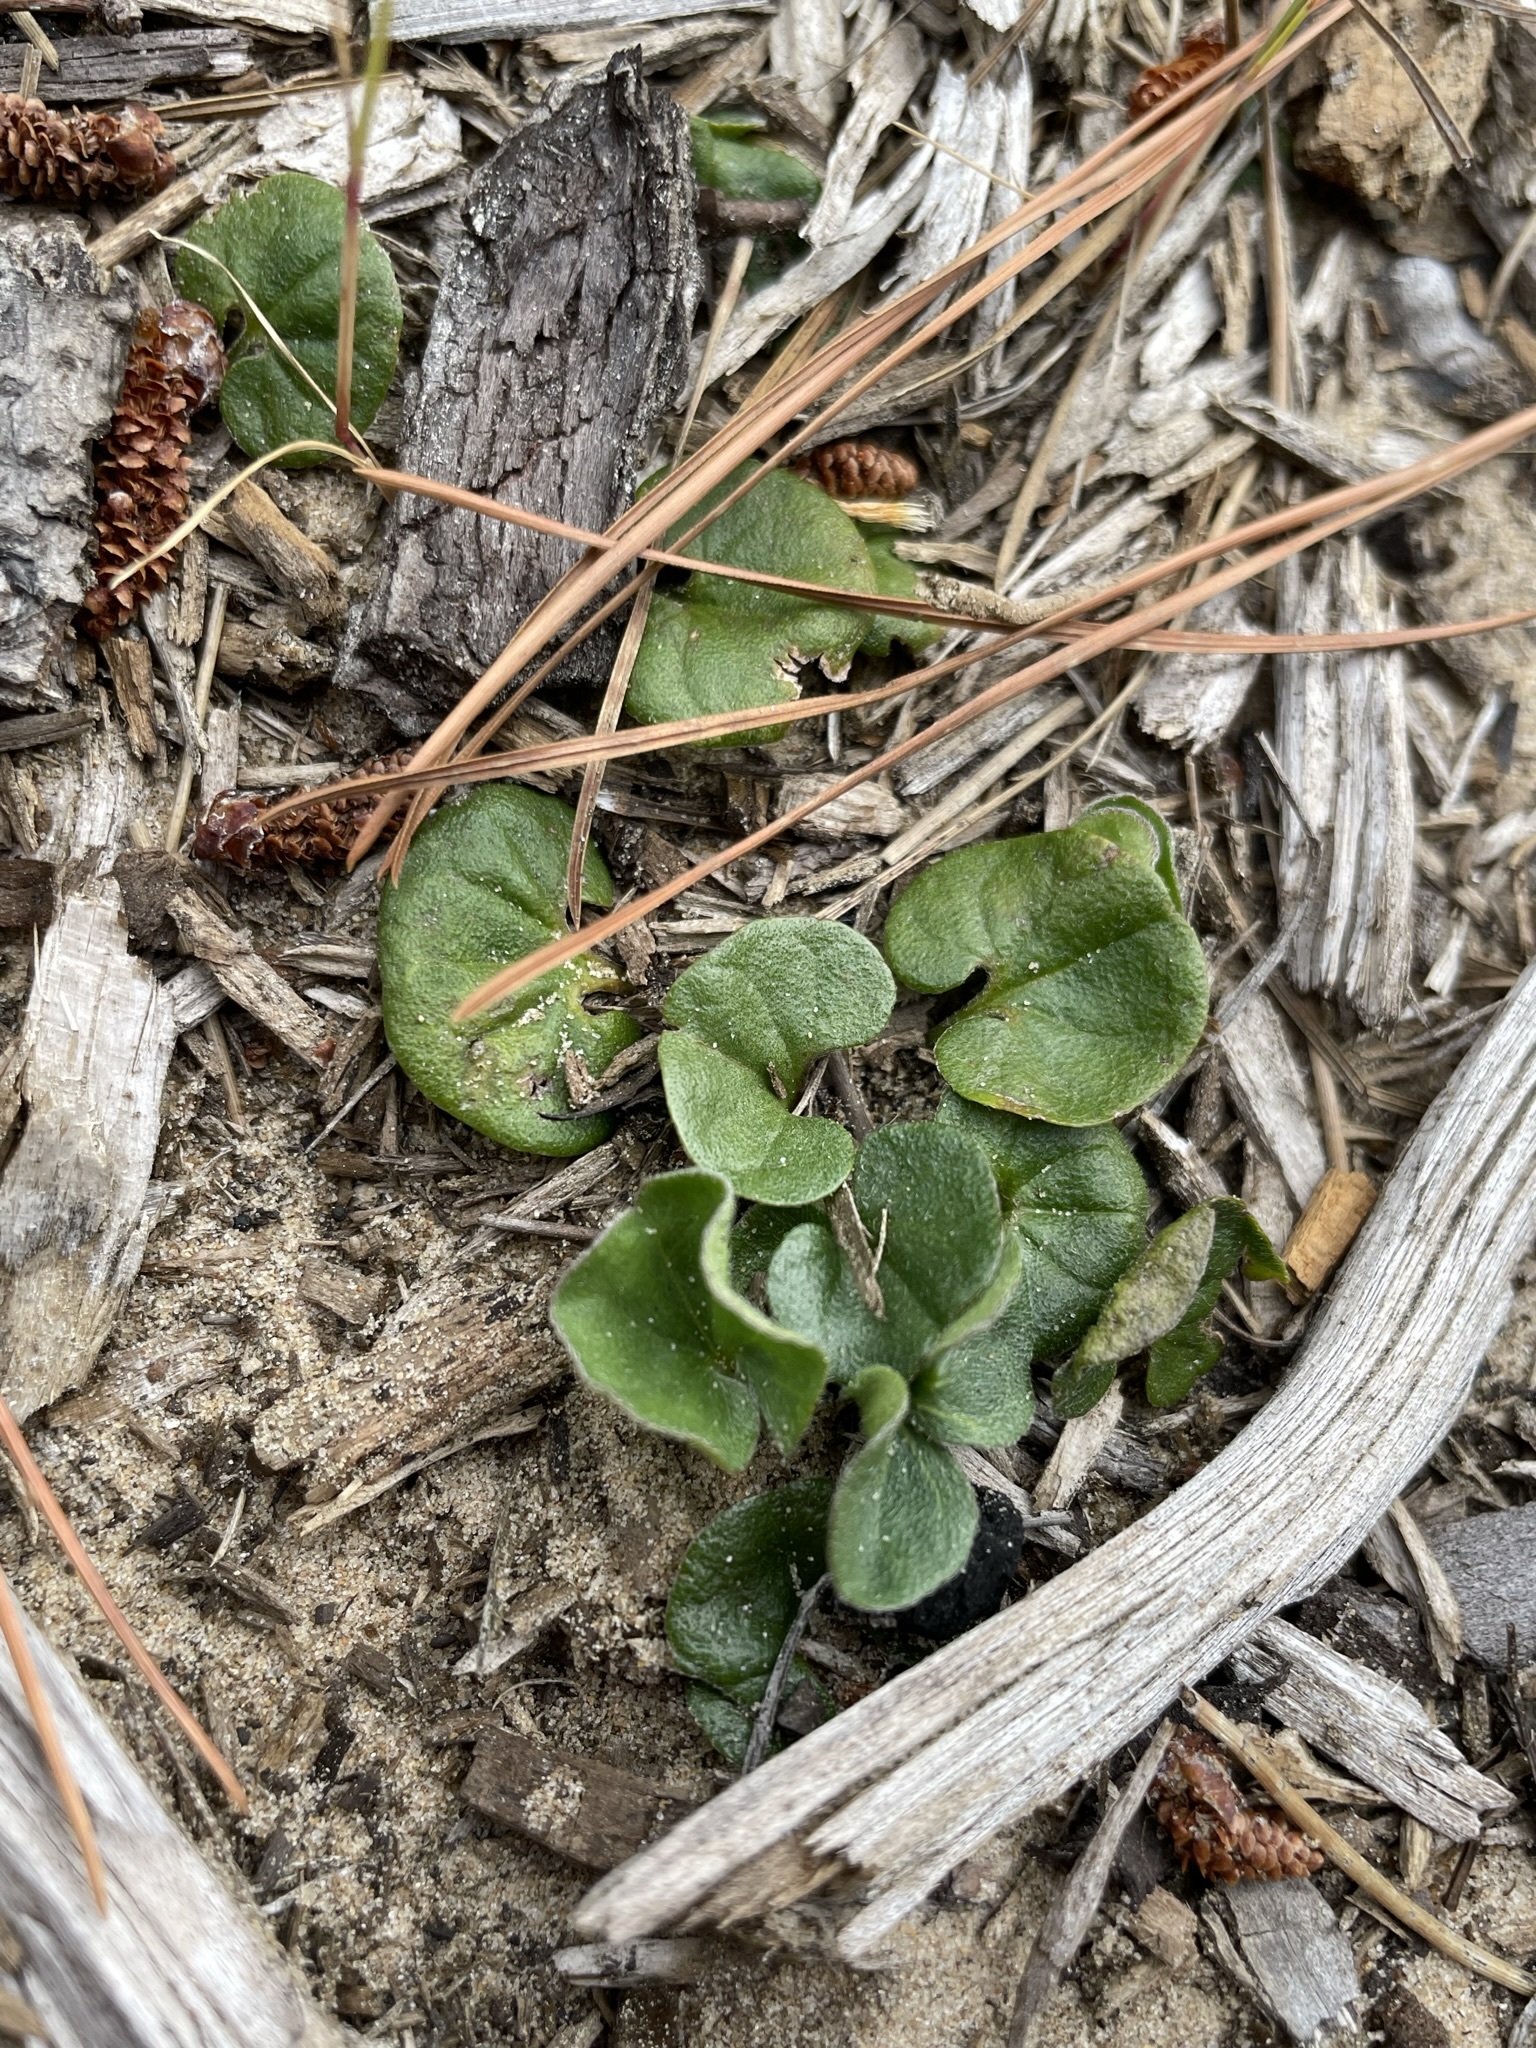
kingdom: Plantae
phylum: Tracheophyta
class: Magnoliopsida
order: Solanales
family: Convolvulaceae
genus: Dichondra
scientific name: Dichondra repens
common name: Kidneyweed
